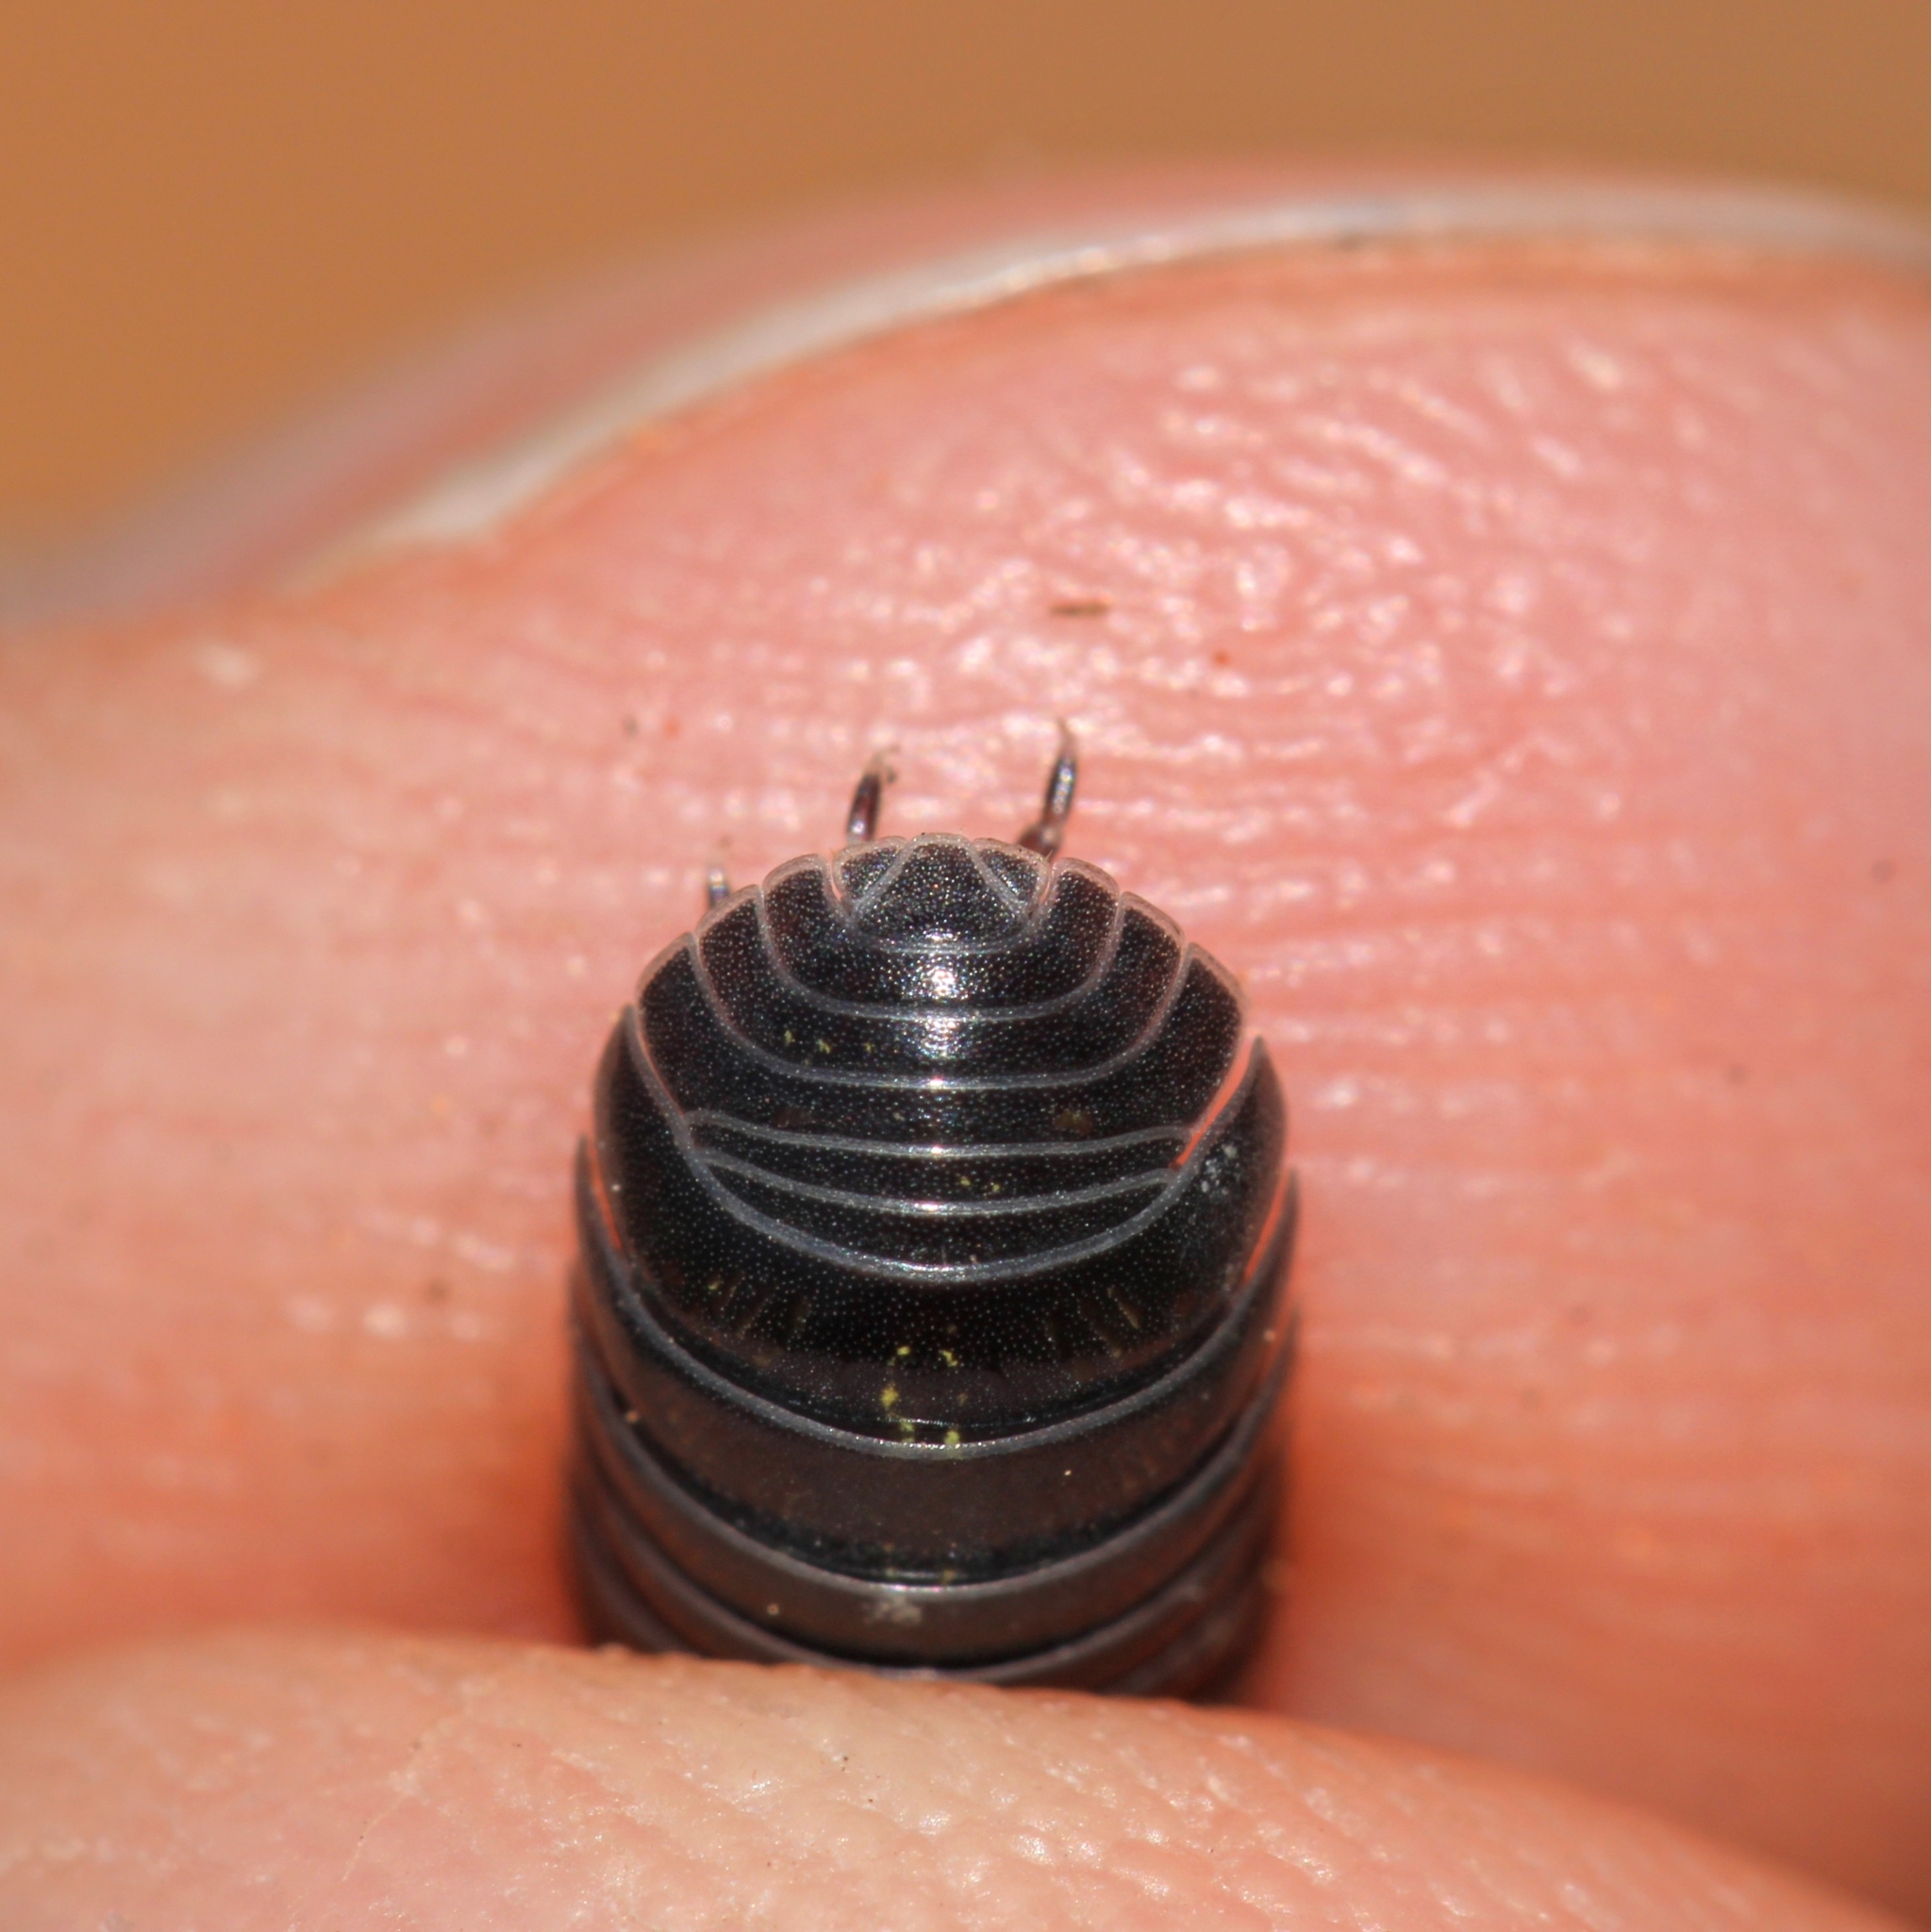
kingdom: Animalia
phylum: Arthropoda
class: Malacostraca
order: Isopoda
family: Armadillidiidae
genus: Armadillidium
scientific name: Armadillidium vulgare
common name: Common pill woodlouse
